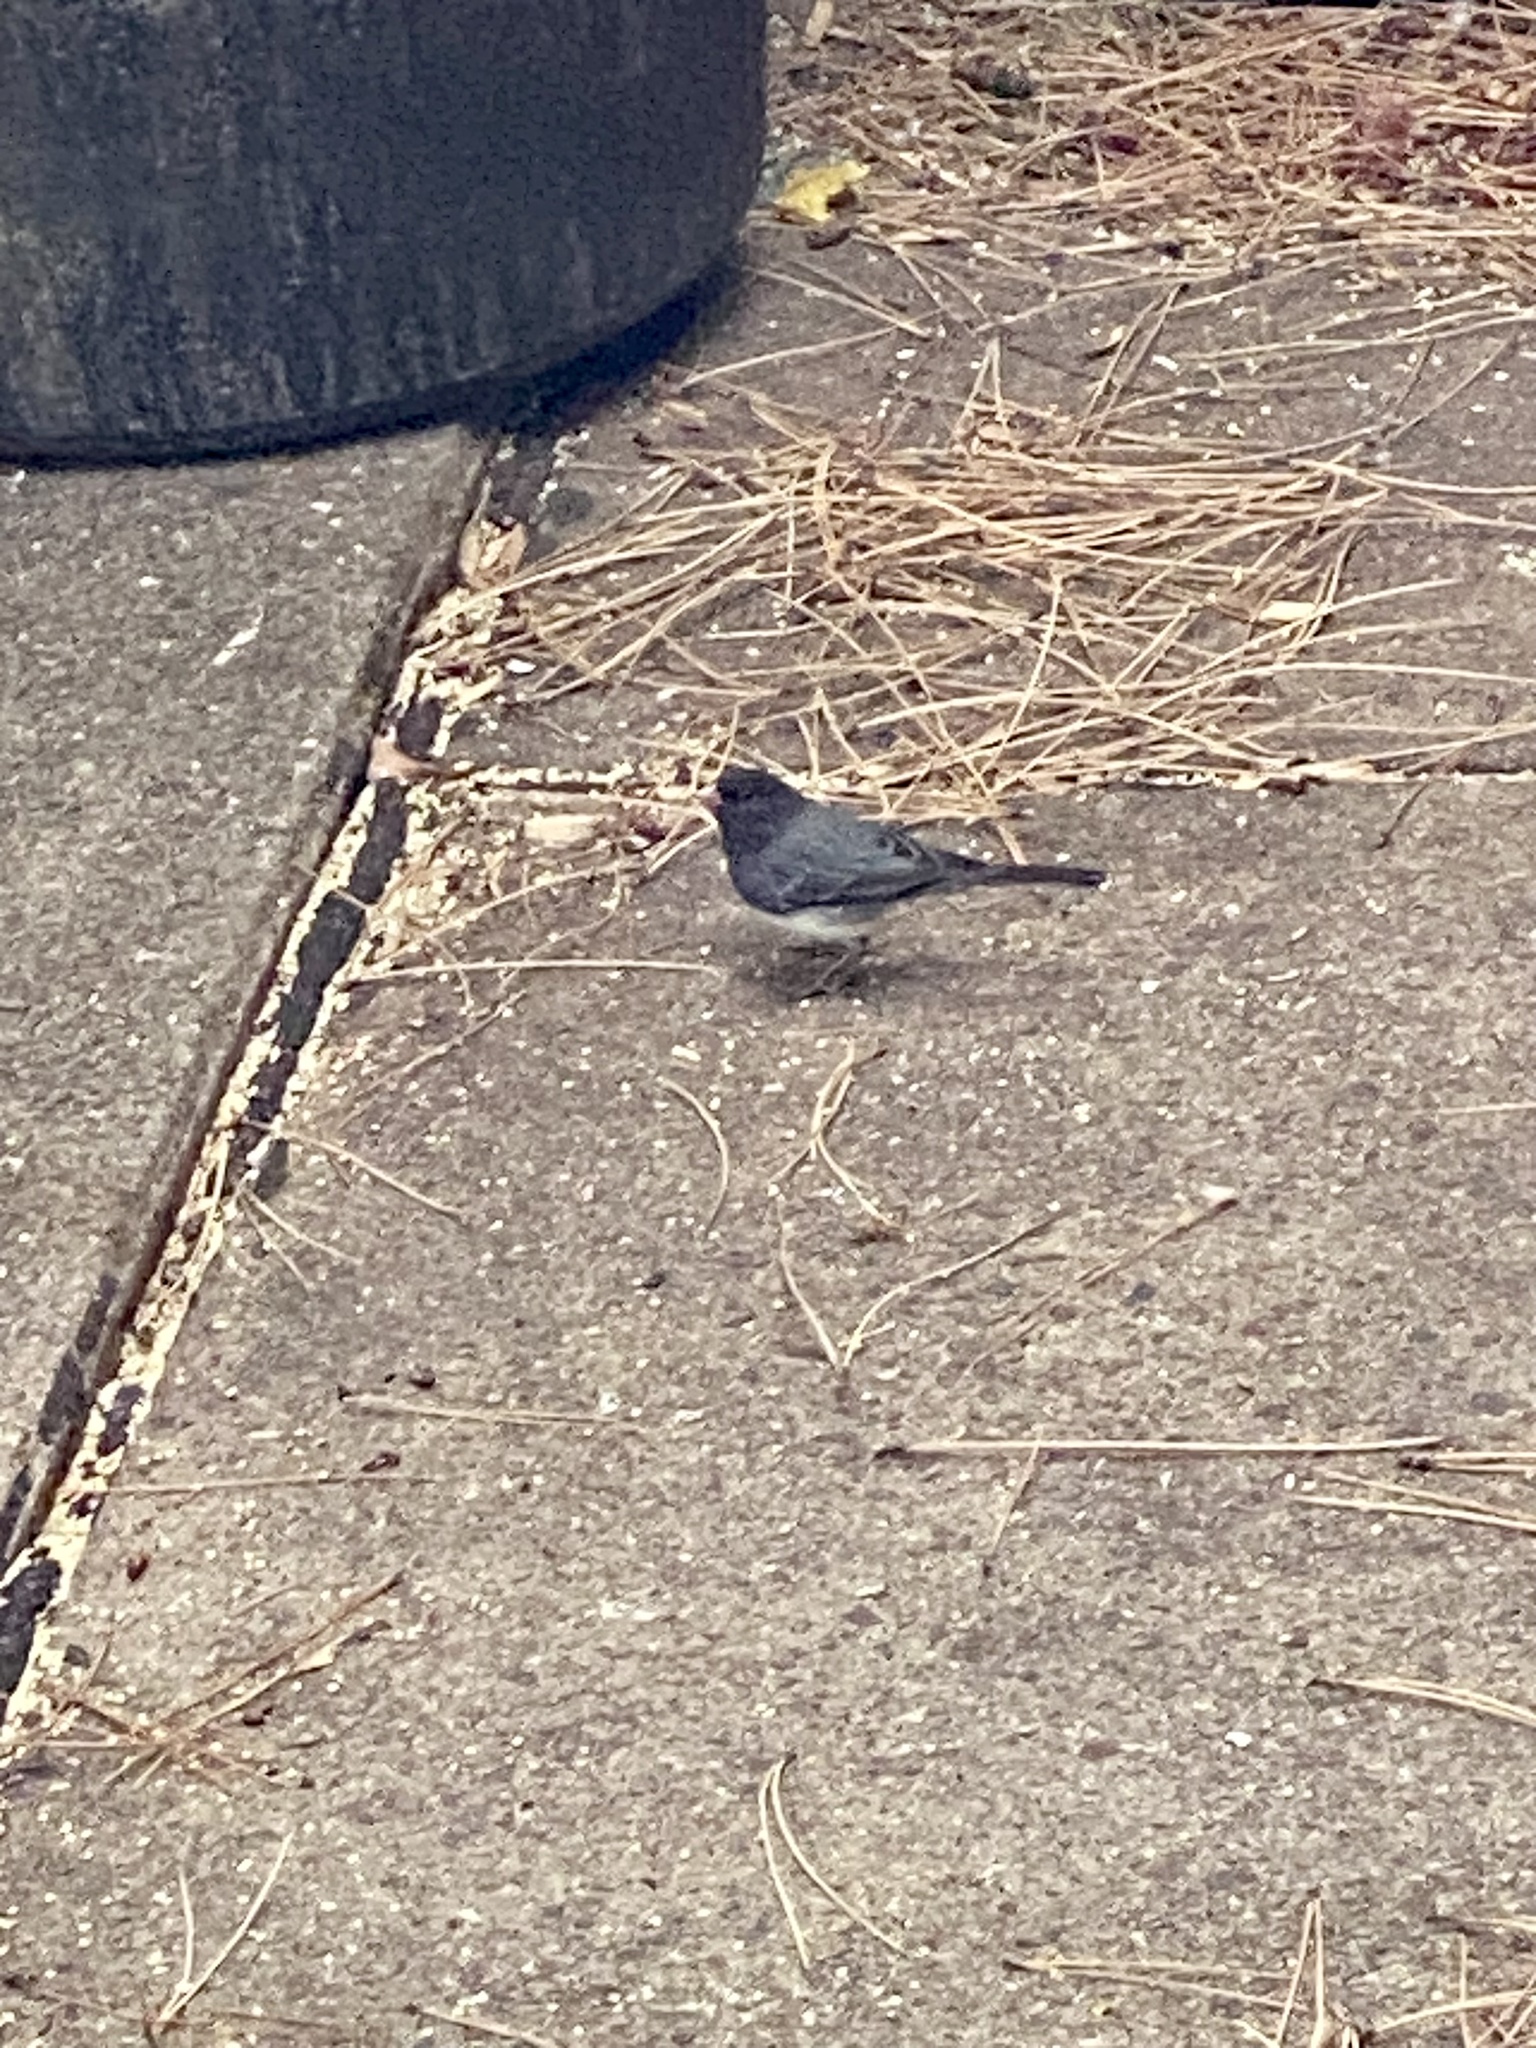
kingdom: Animalia
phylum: Chordata
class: Aves
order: Passeriformes
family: Passerellidae
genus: Junco
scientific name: Junco hyemalis
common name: Dark-eyed junco
